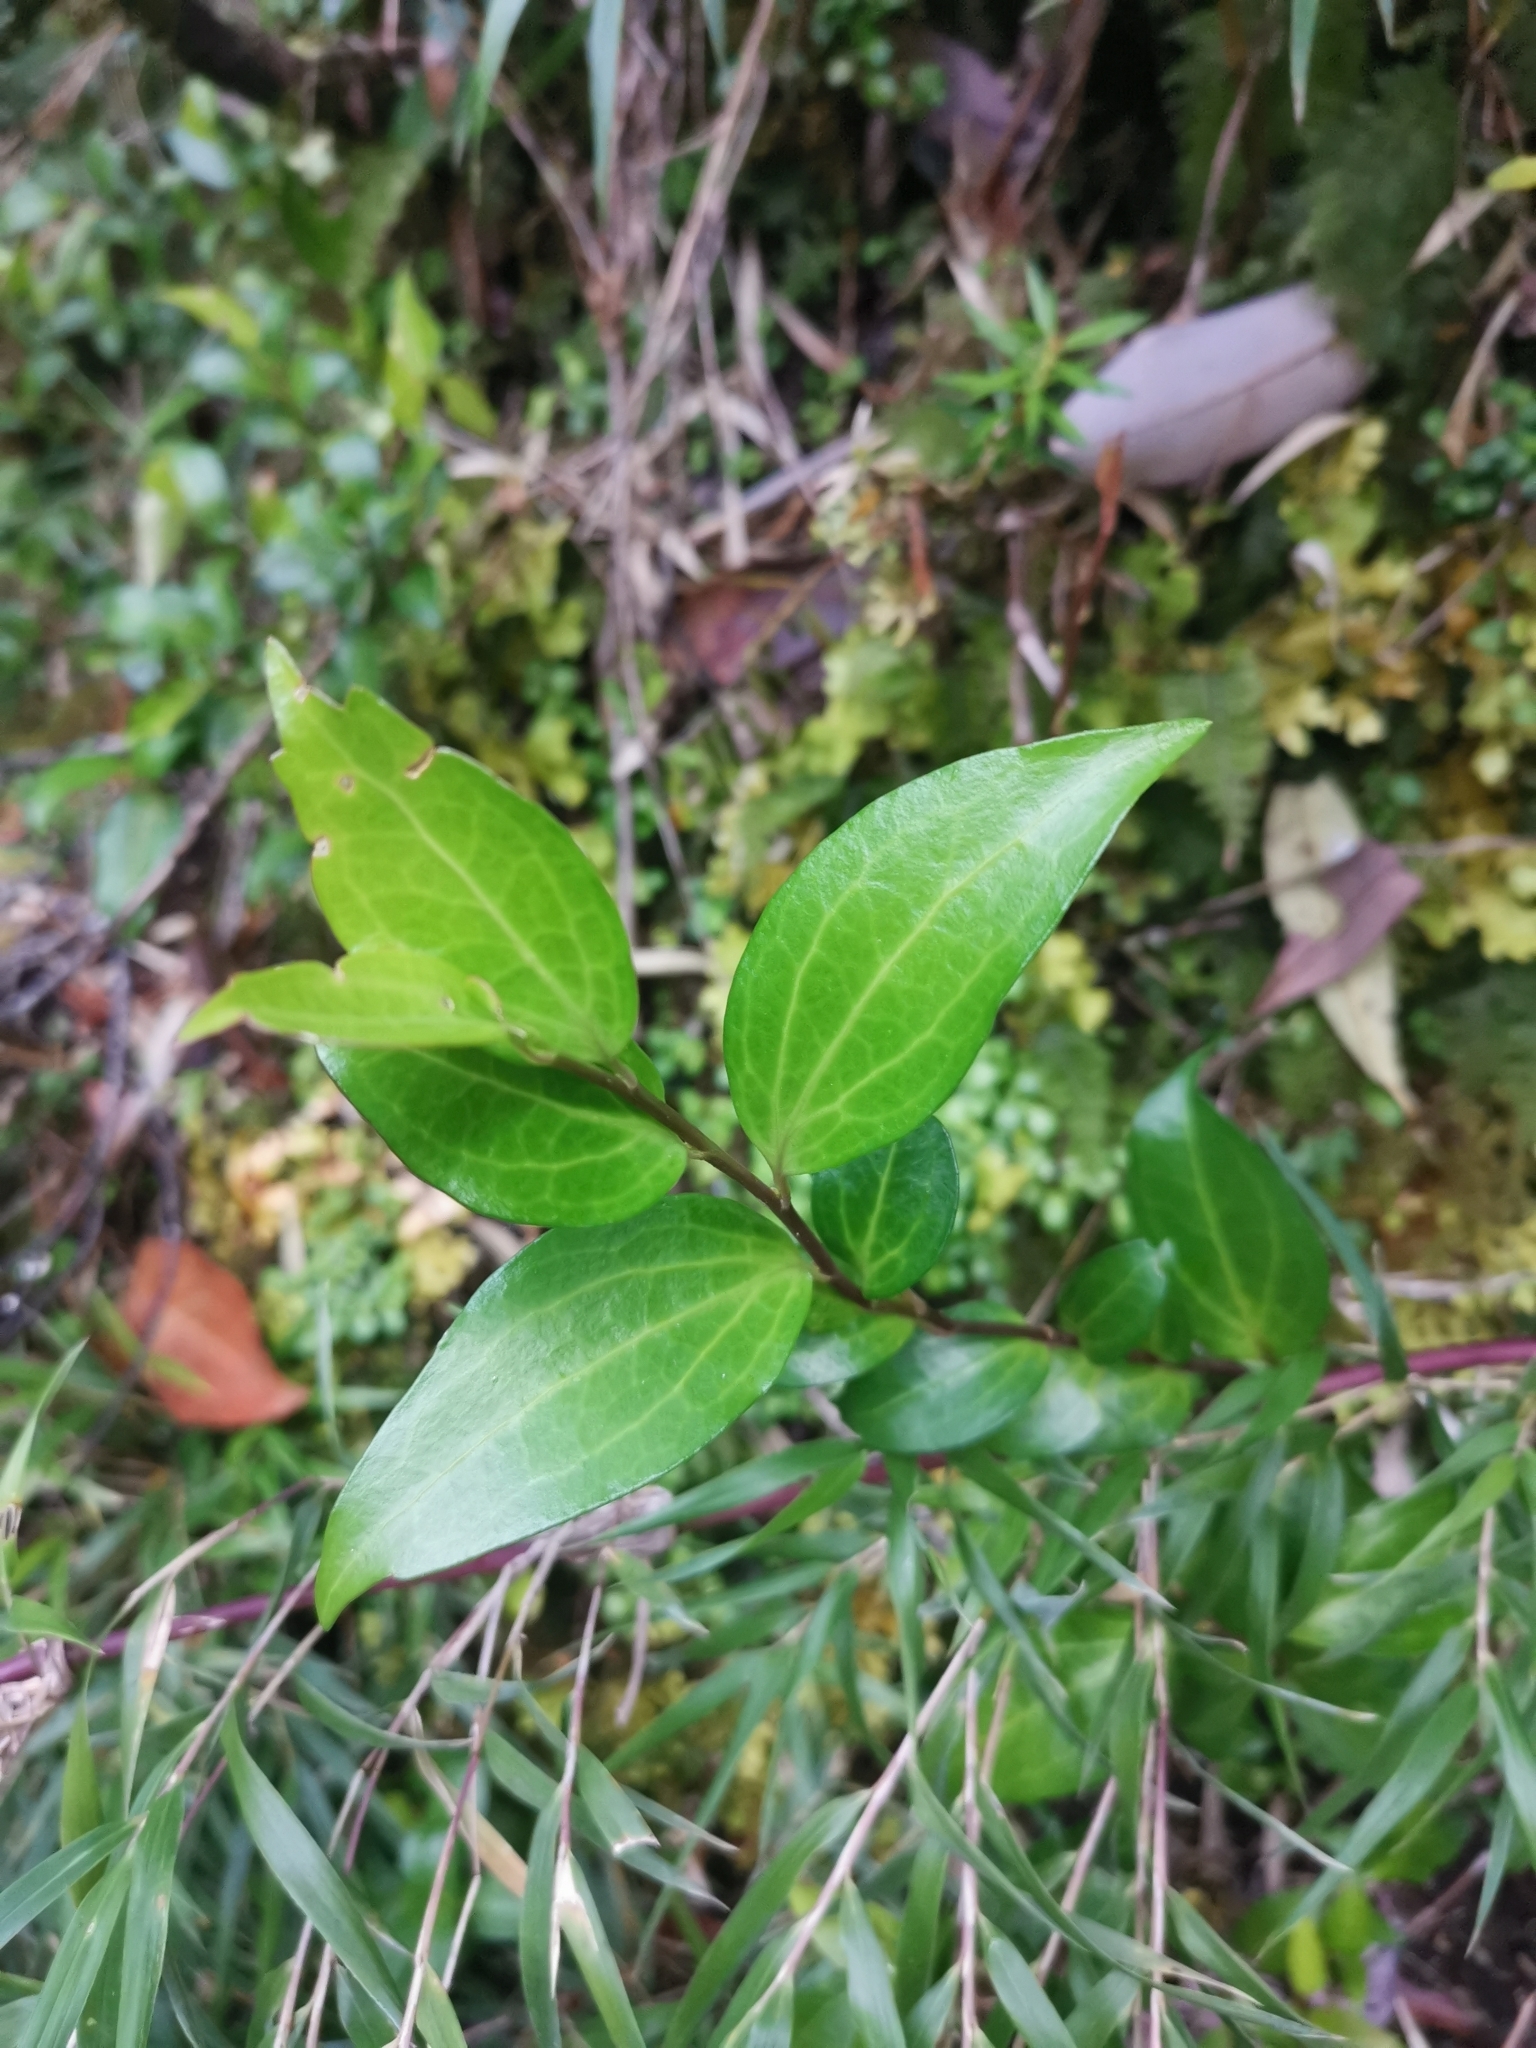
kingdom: Plantae
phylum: Tracheophyta
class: Magnoliopsida
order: Apiales
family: Griseliniaceae
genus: Griselinia
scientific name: Griselinia racemosa
